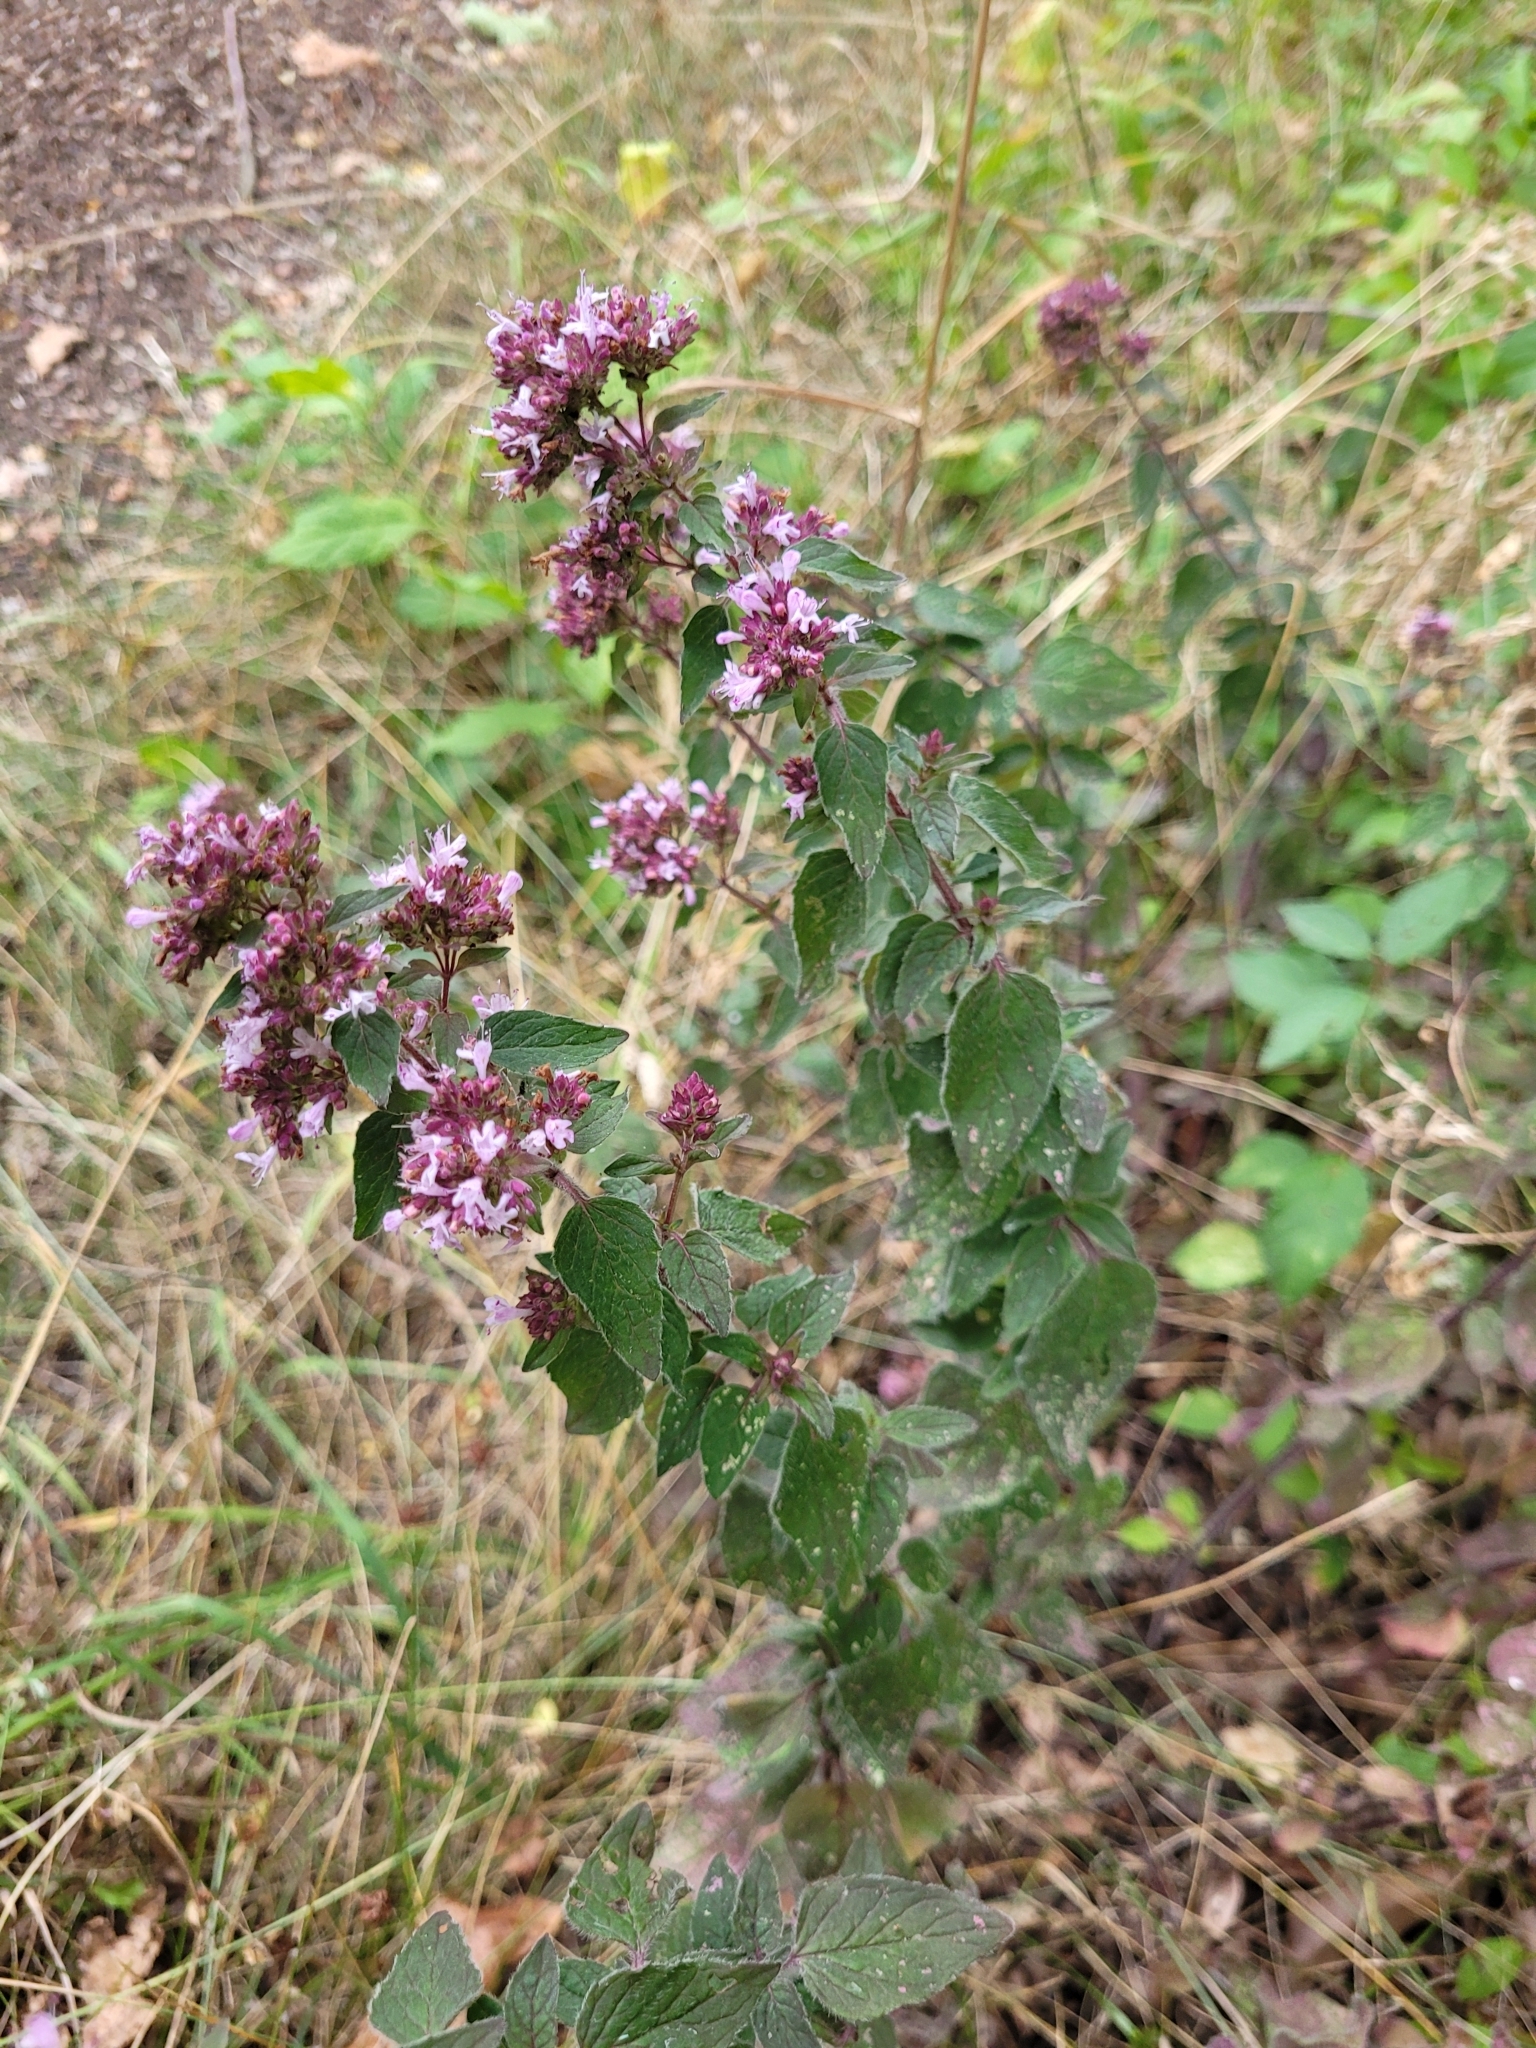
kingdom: Plantae
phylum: Tracheophyta
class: Magnoliopsida
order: Lamiales
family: Lamiaceae
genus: Origanum
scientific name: Origanum vulgare
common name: Wild marjoram
